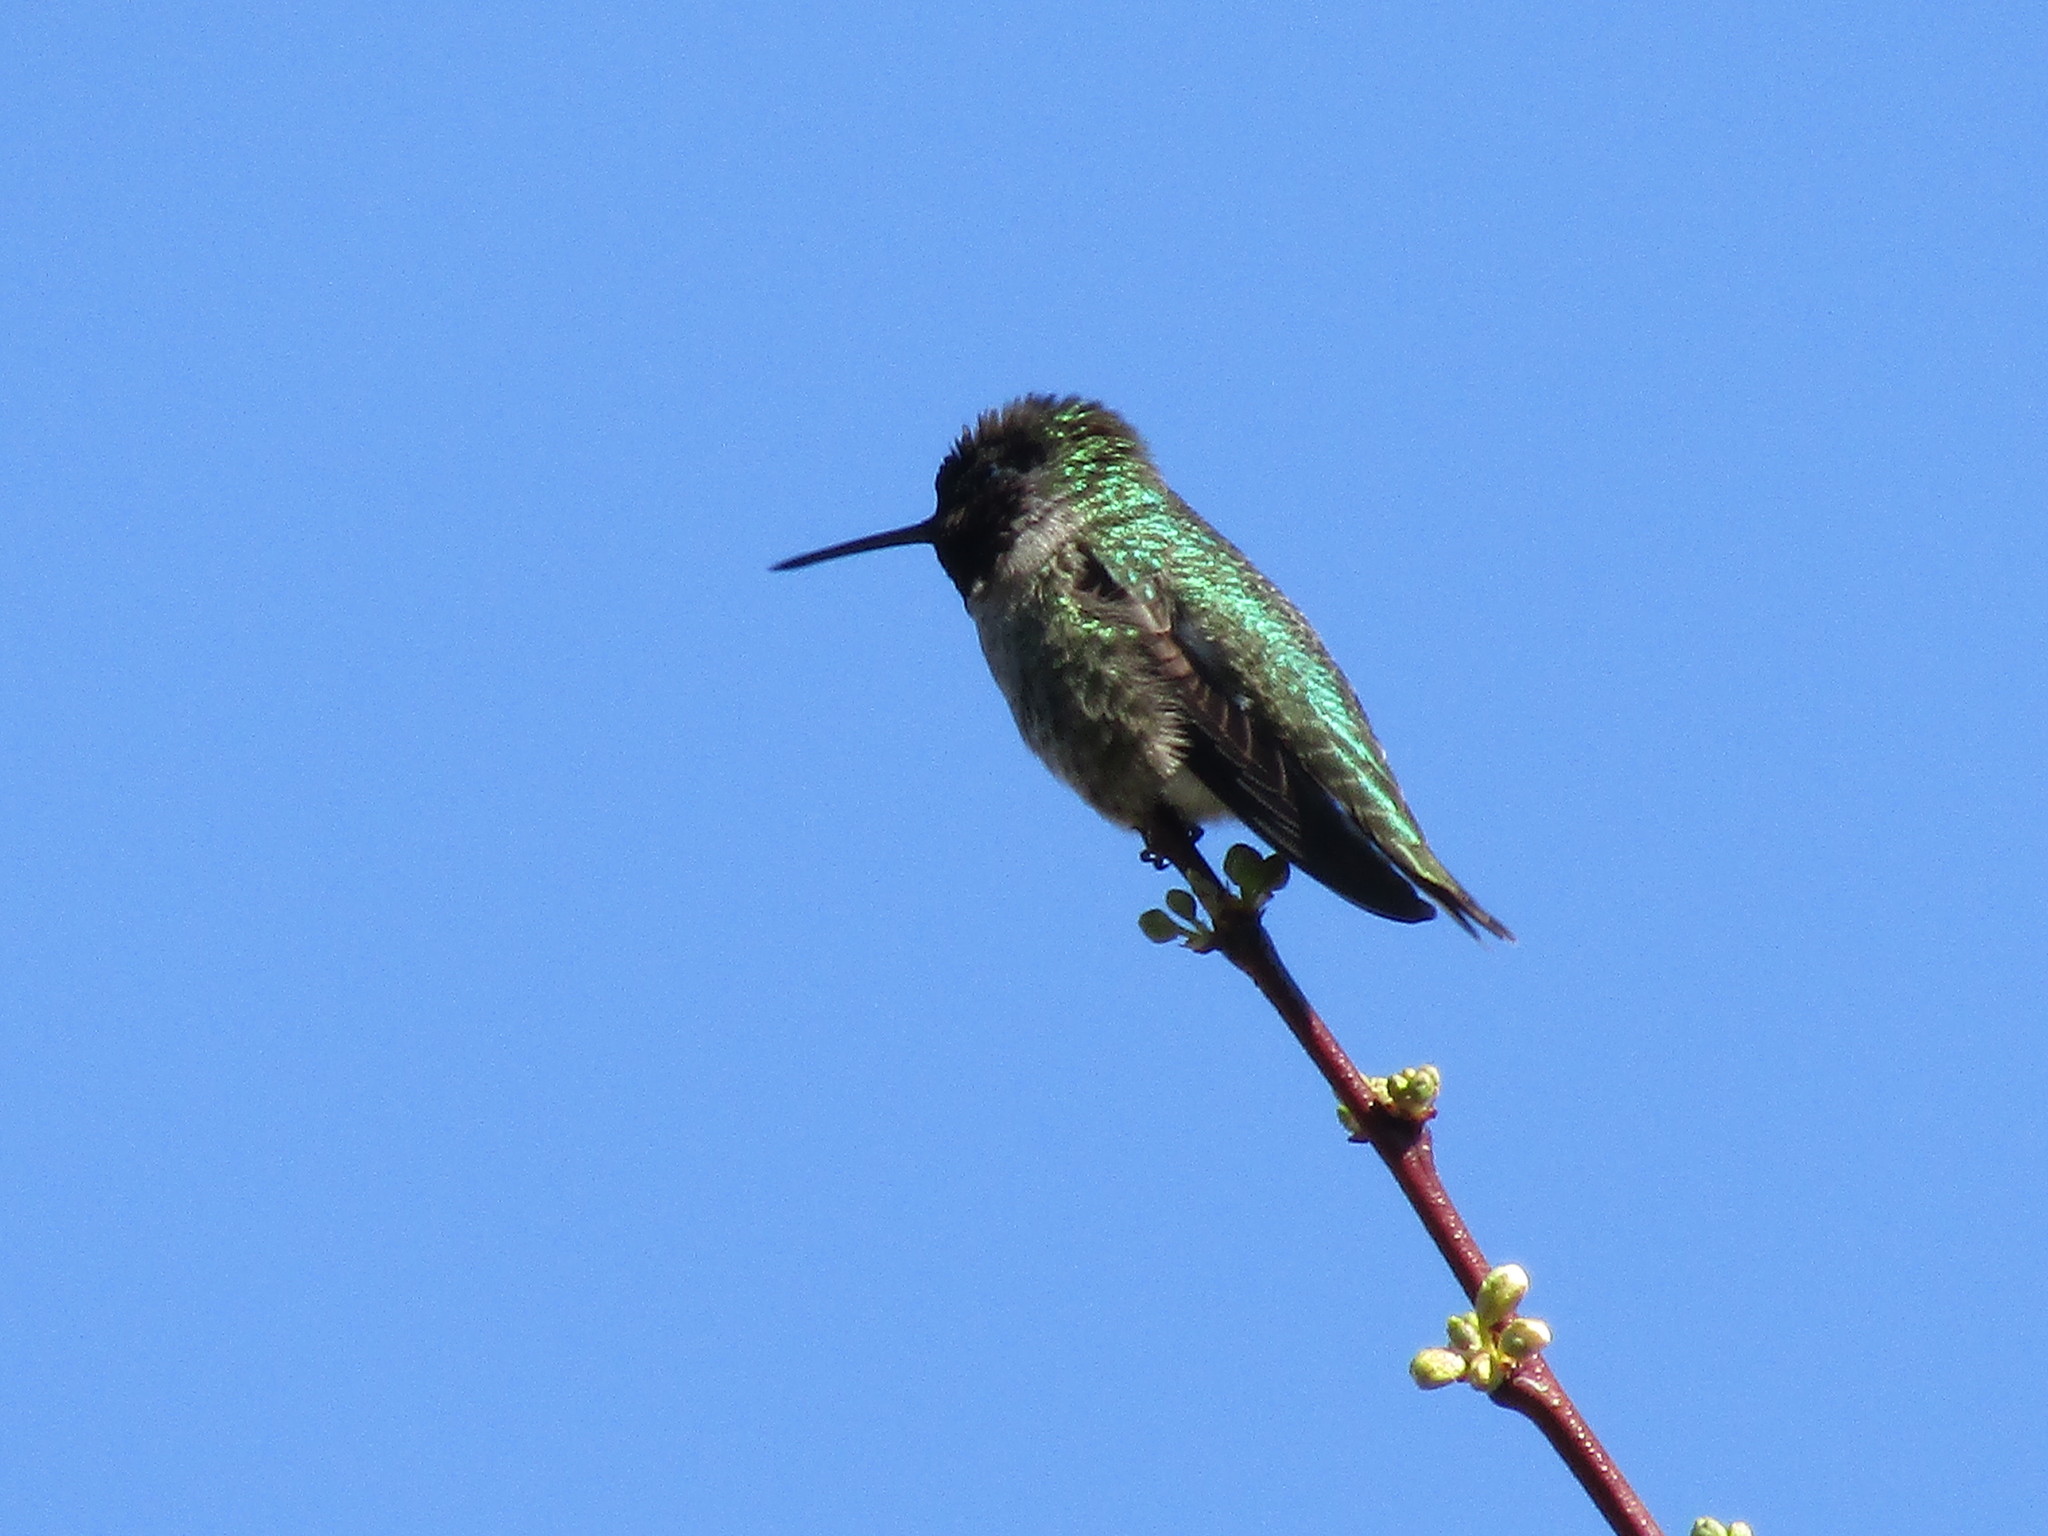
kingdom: Animalia
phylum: Chordata
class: Aves
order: Apodiformes
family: Trochilidae
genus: Calypte
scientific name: Calypte anna
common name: Anna's hummingbird
